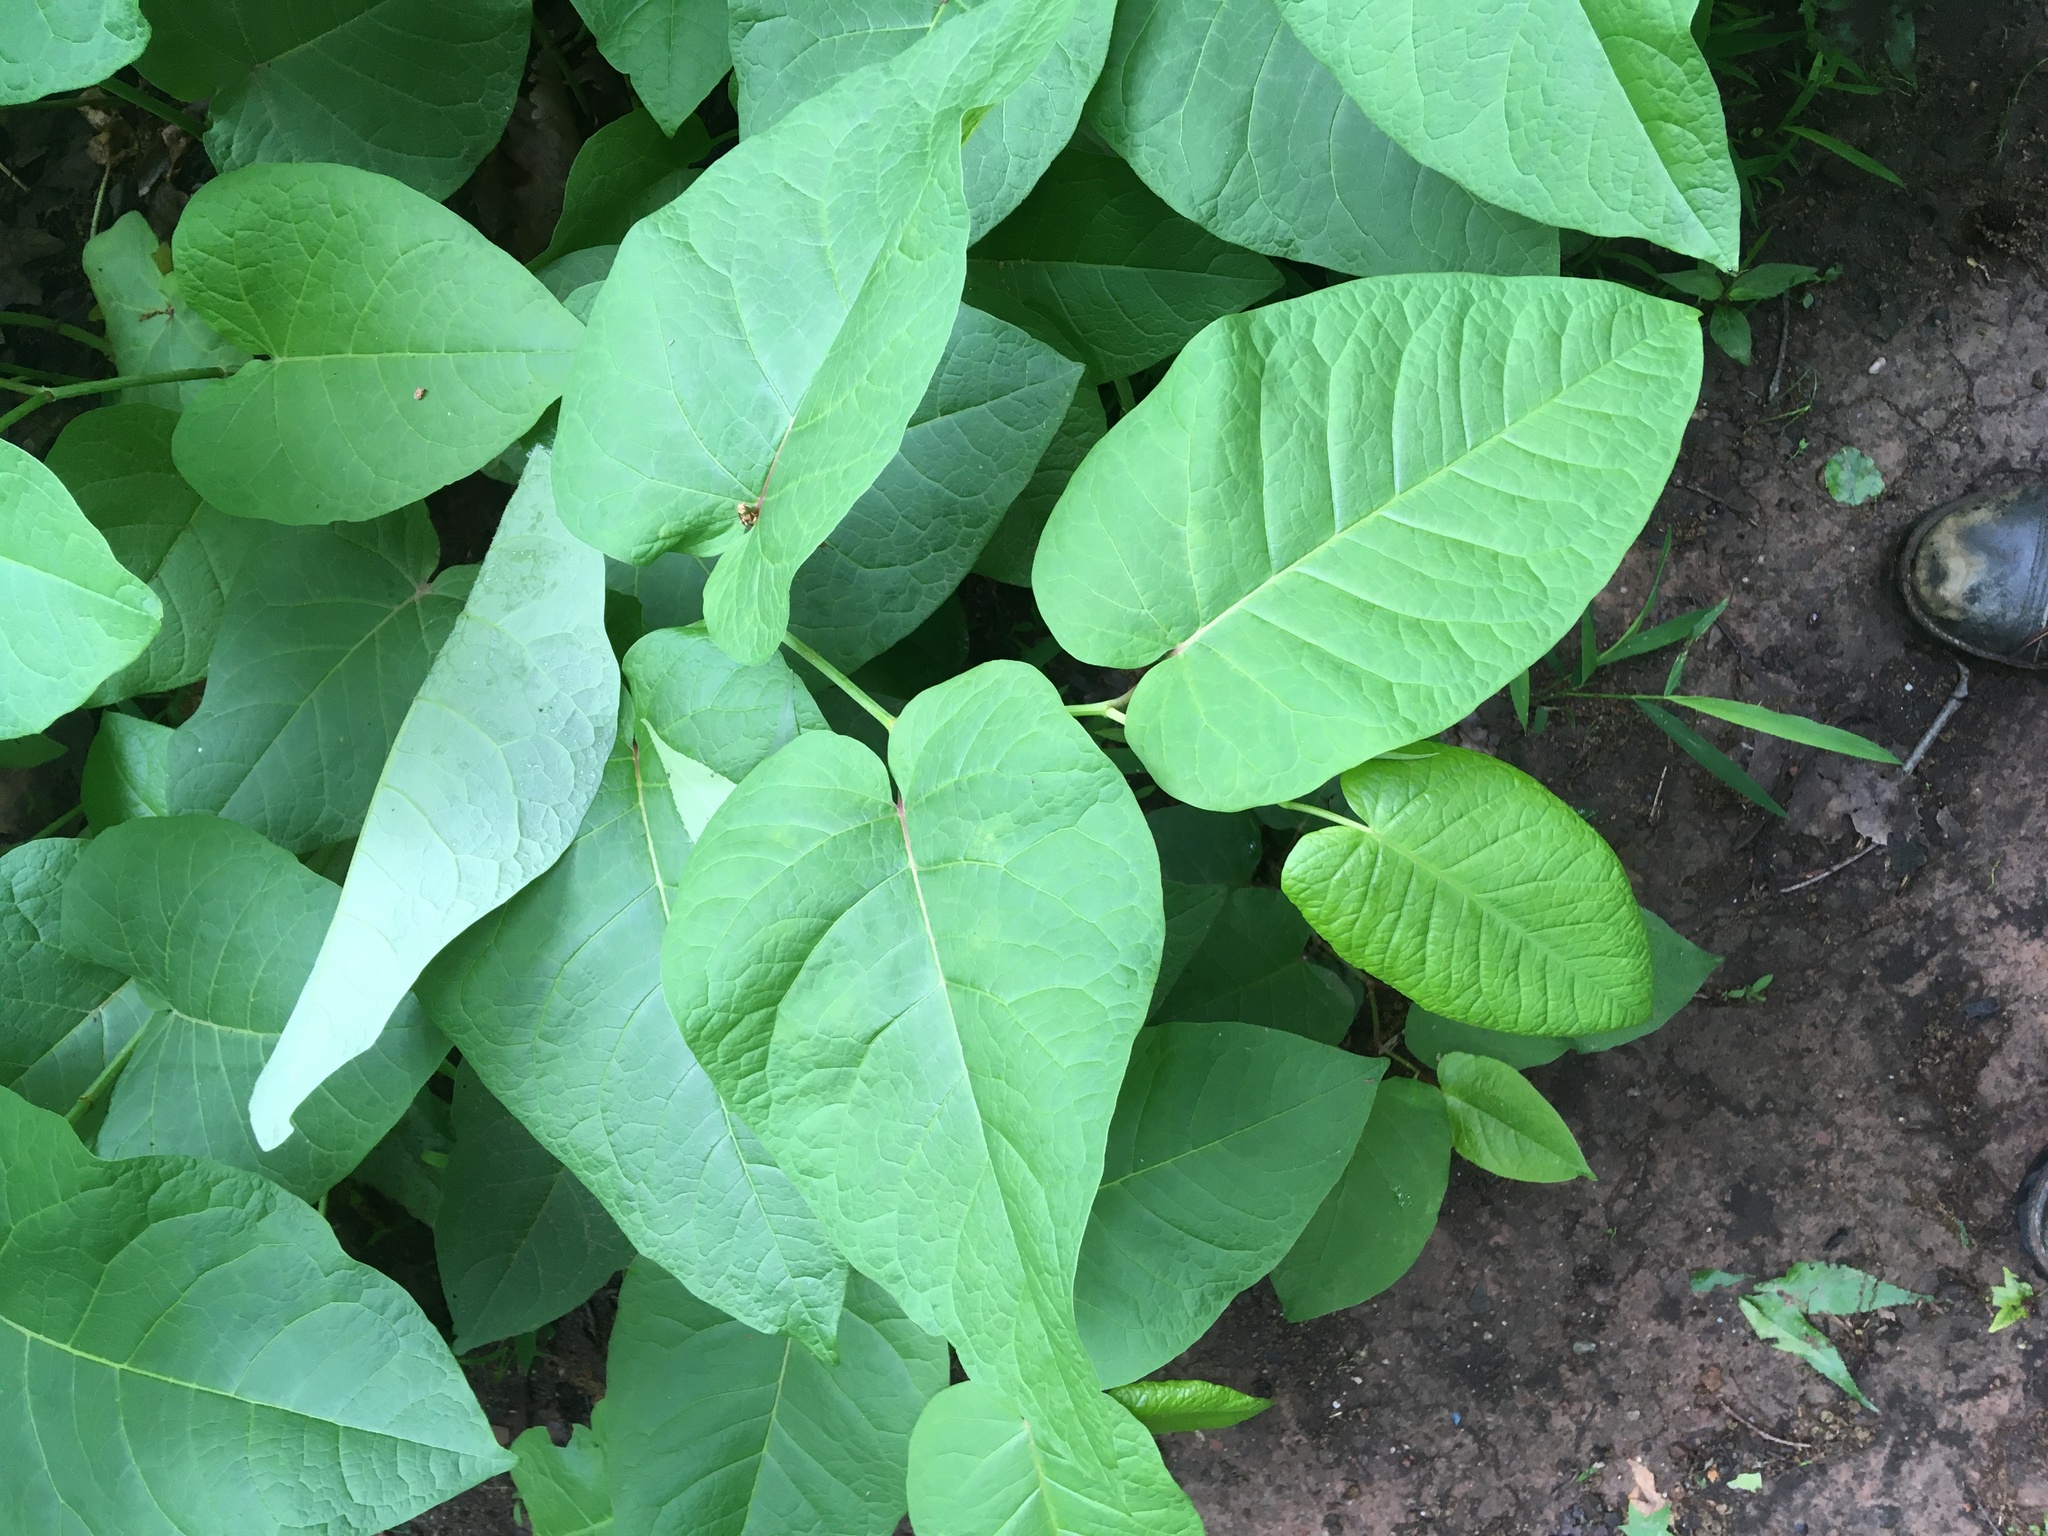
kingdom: Plantae
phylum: Tracheophyta
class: Magnoliopsida
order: Caryophyllales
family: Polygonaceae
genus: Reynoutria
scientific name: Reynoutria sachalinensis
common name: Giant knotweed
